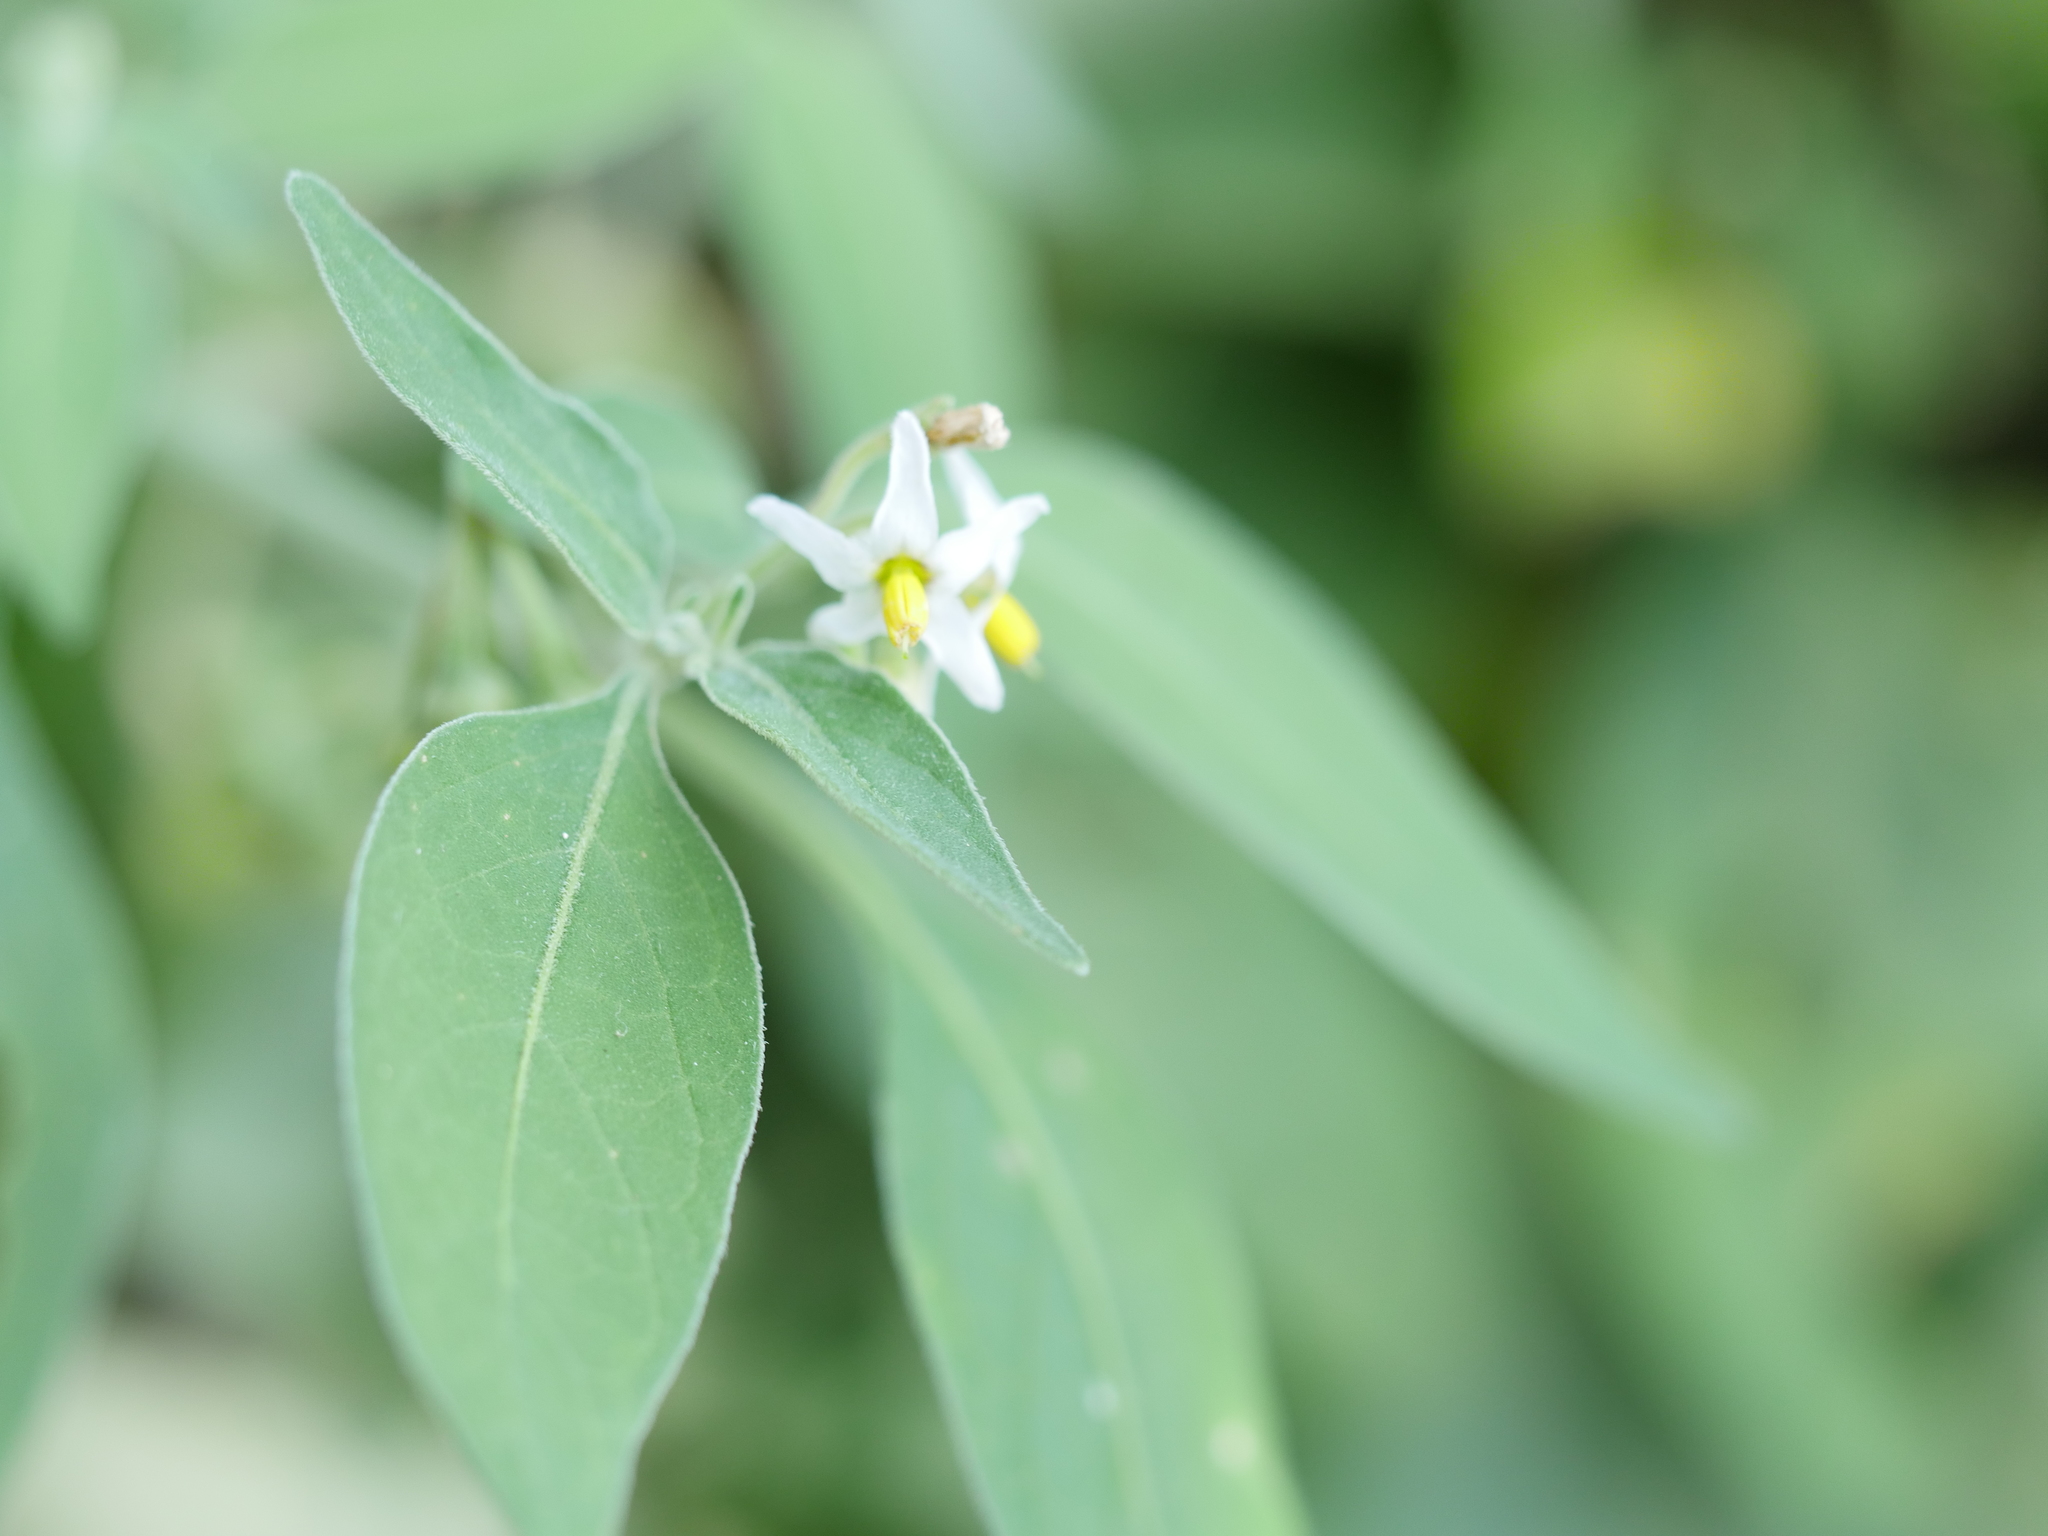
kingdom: Plantae
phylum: Tracheophyta
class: Magnoliopsida
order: Solanales
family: Solanaceae
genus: Solanum
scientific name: Solanum chenopodioides
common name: Tall nightshade
